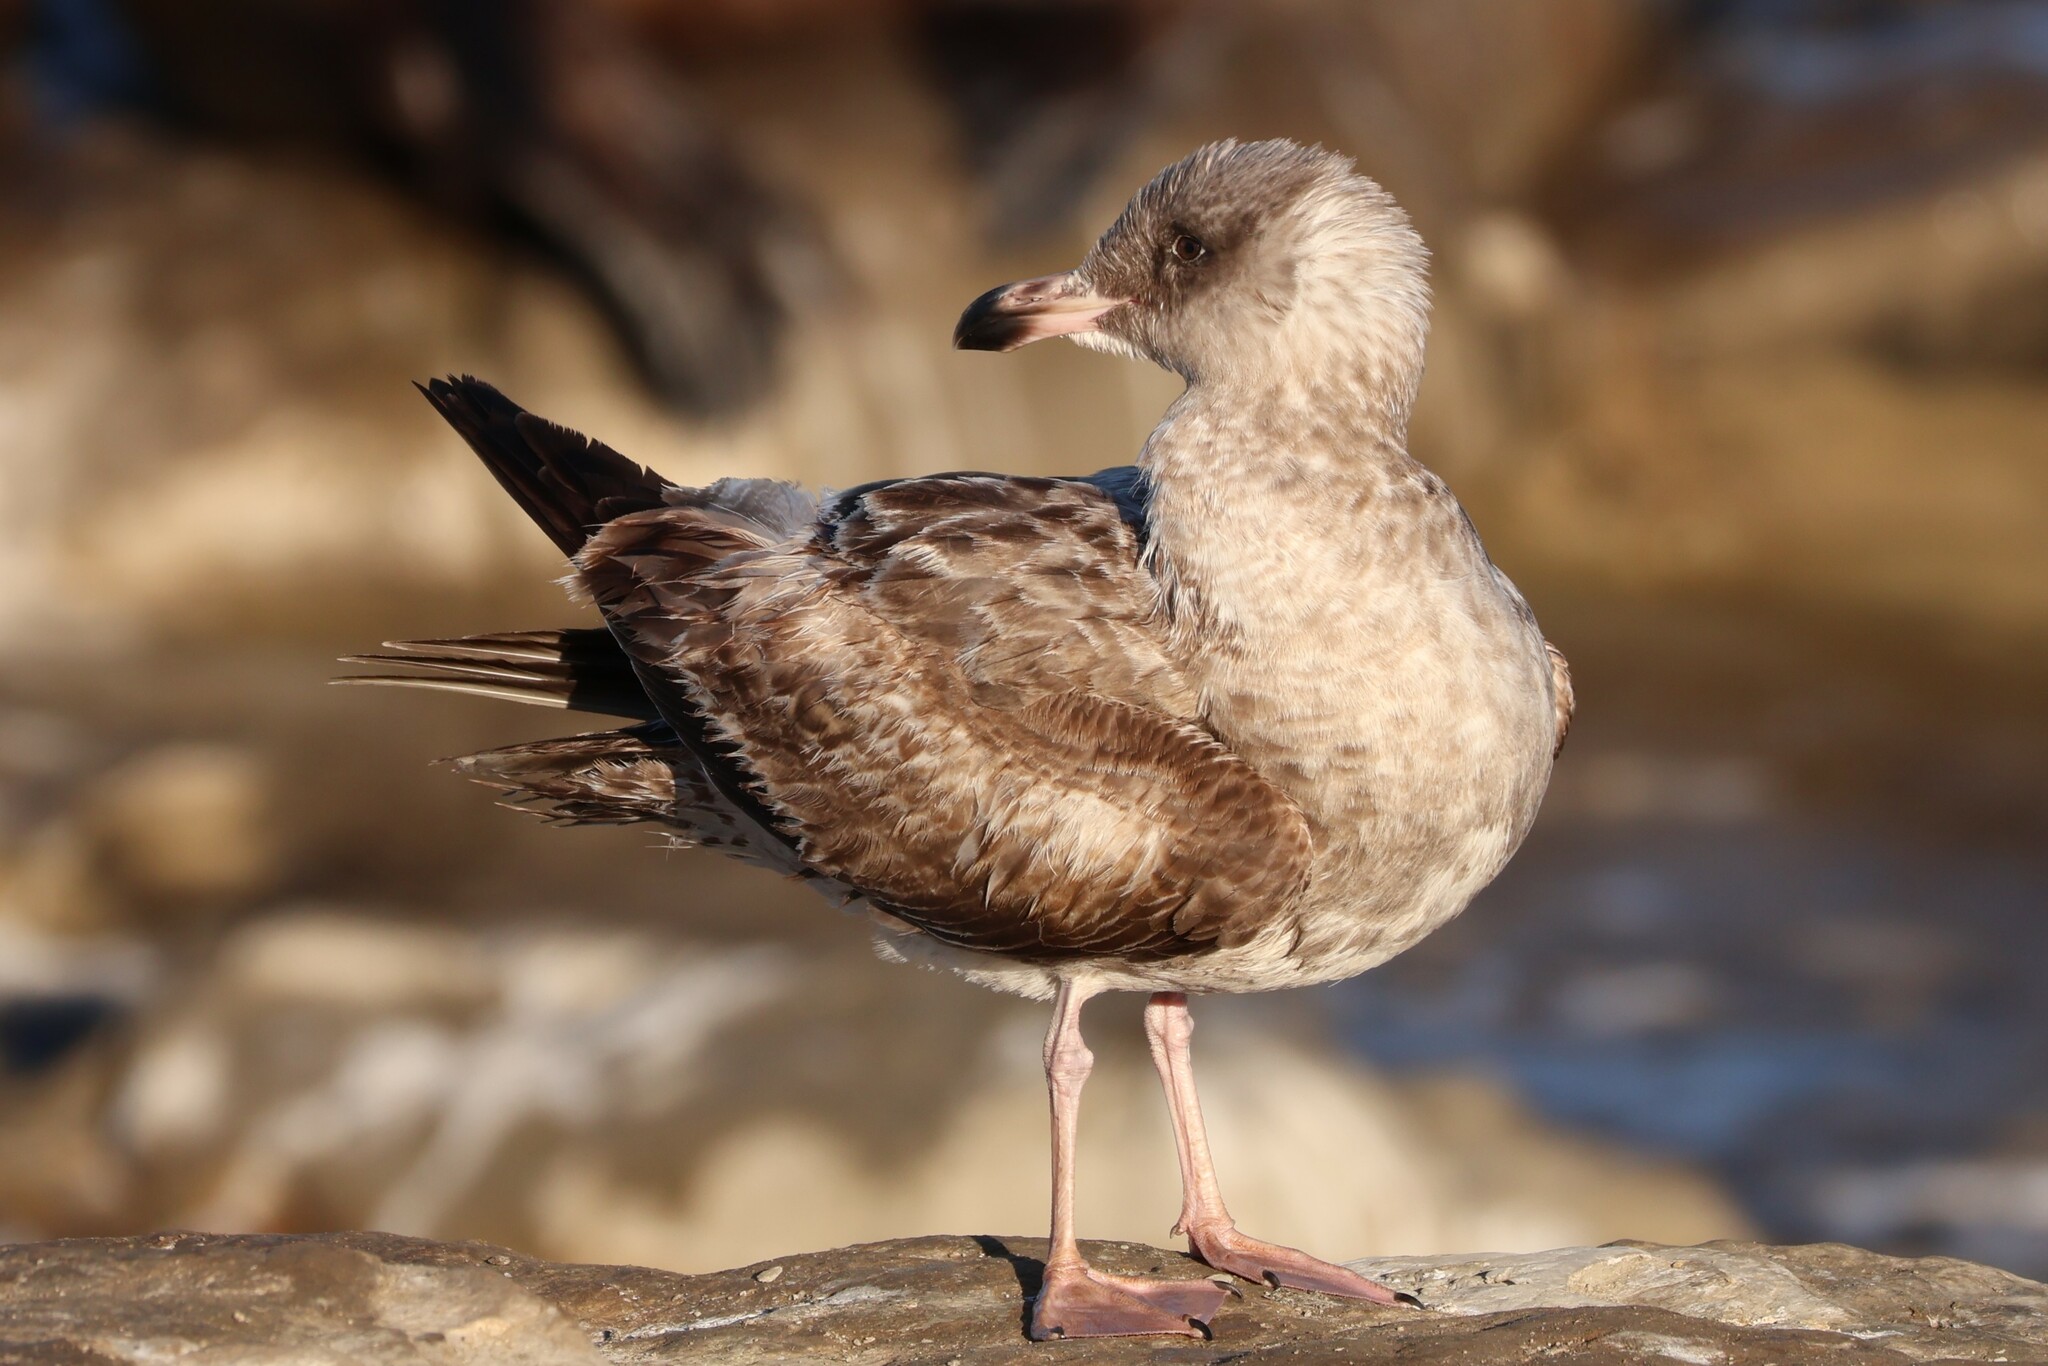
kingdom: Animalia
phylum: Chordata
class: Aves
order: Charadriiformes
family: Laridae
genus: Larus
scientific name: Larus occidentalis
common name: Western gull
